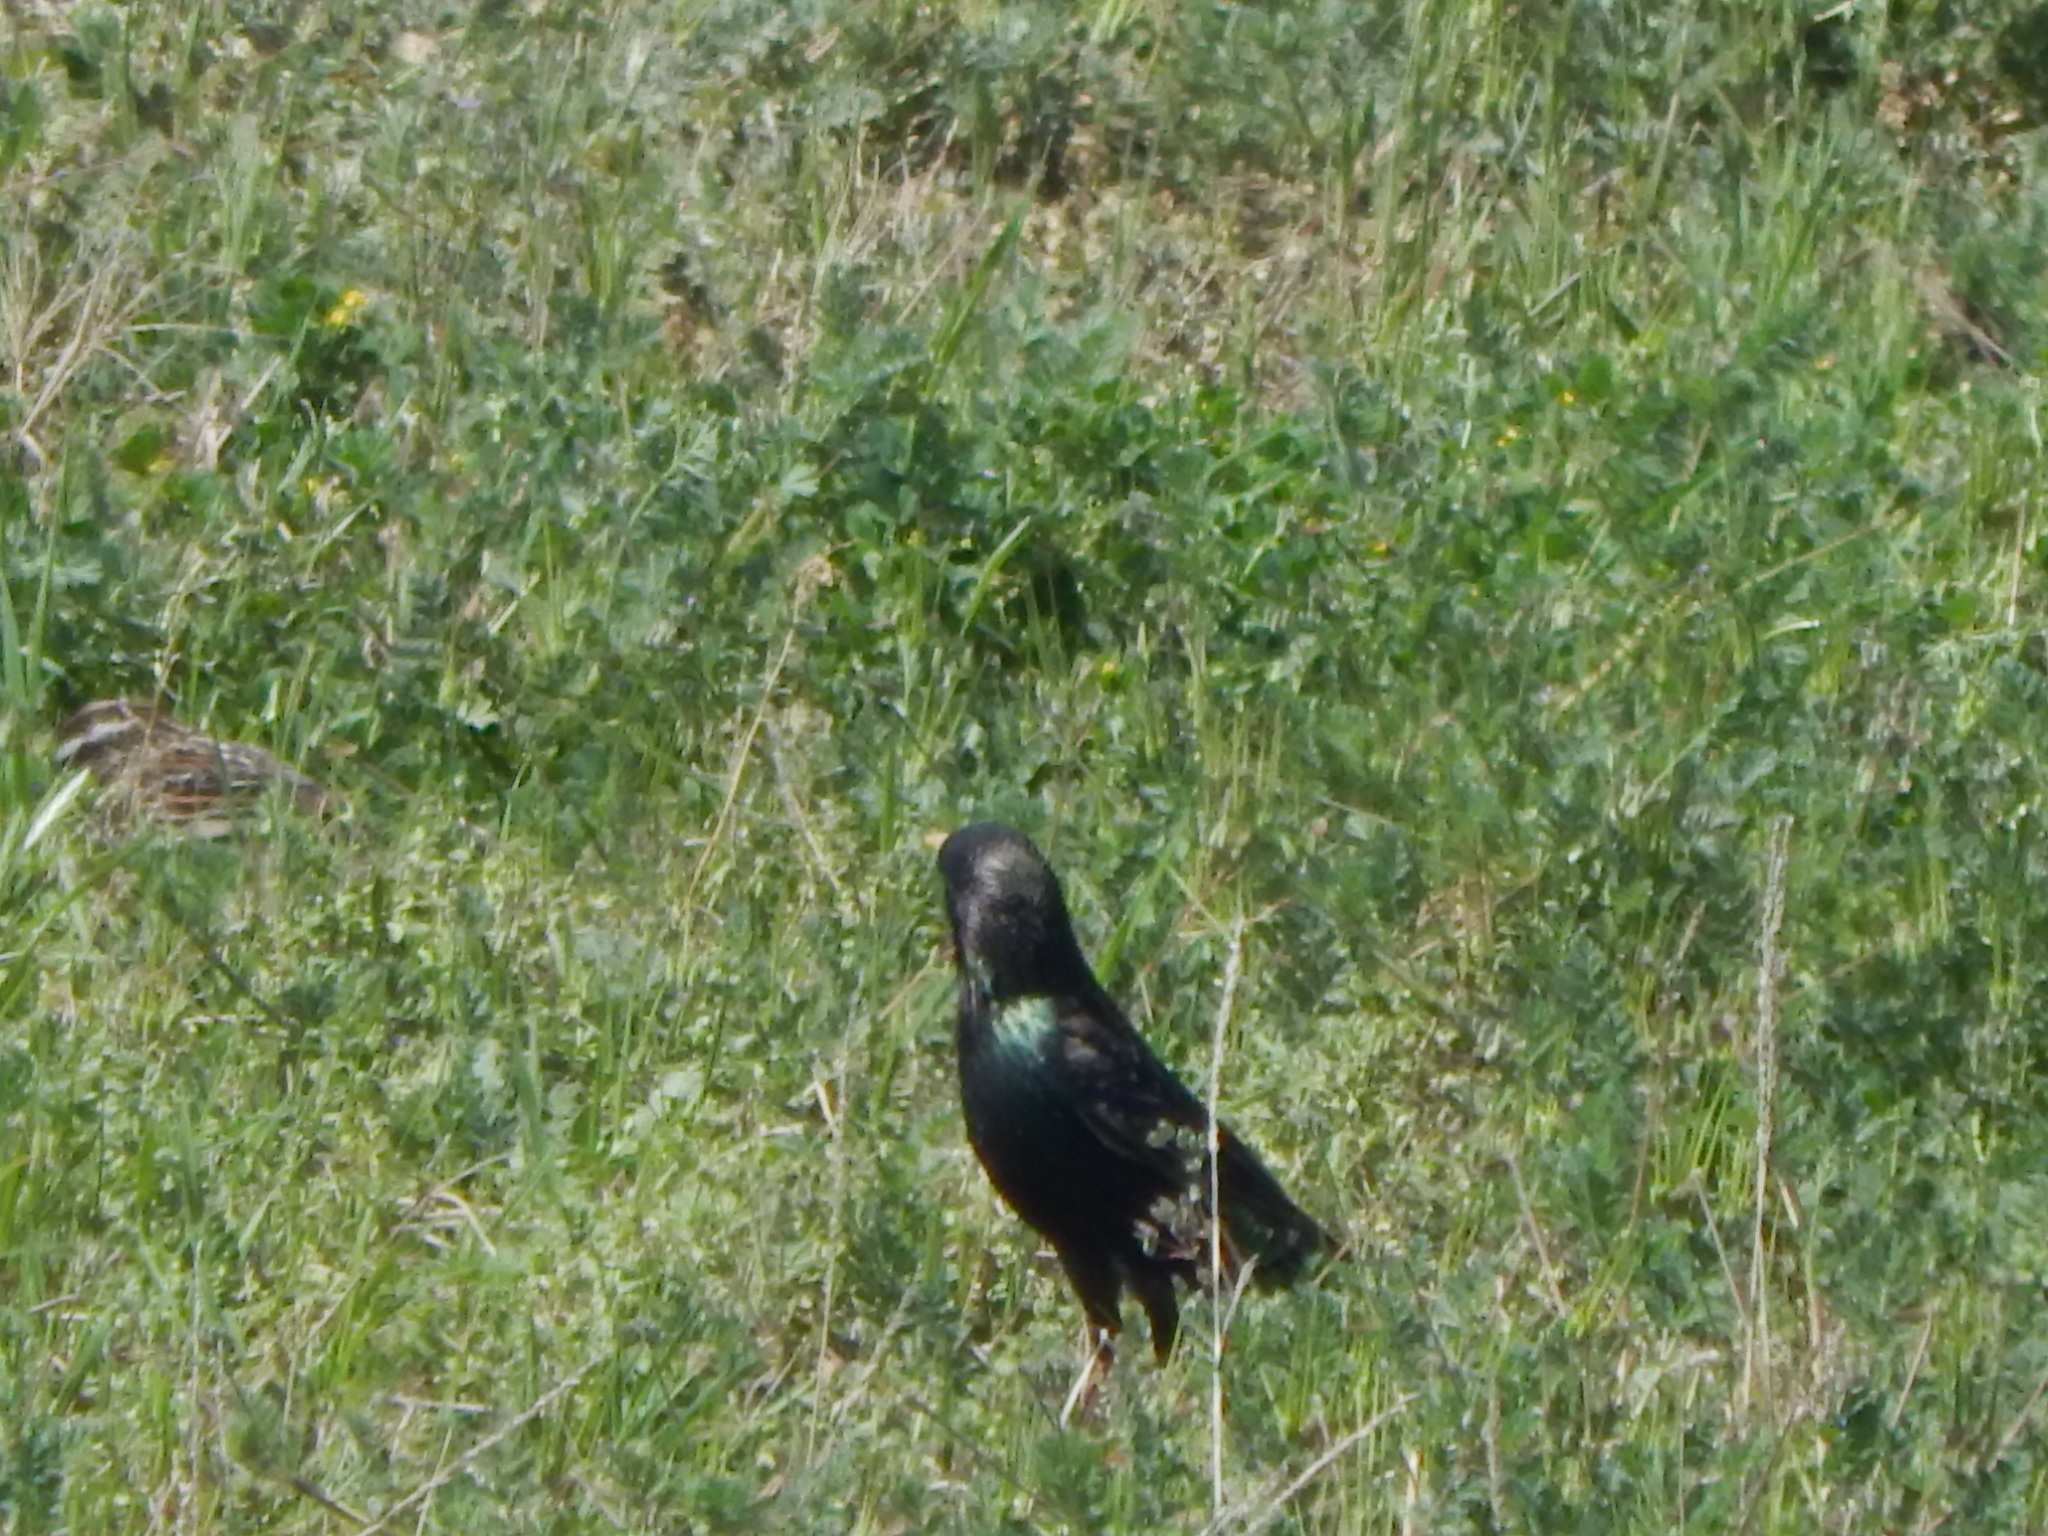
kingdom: Animalia
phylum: Chordata
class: Aves
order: Passeriformes
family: Sturnidae
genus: Sturnus
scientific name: Sturnus vulgaris
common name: Common starling
